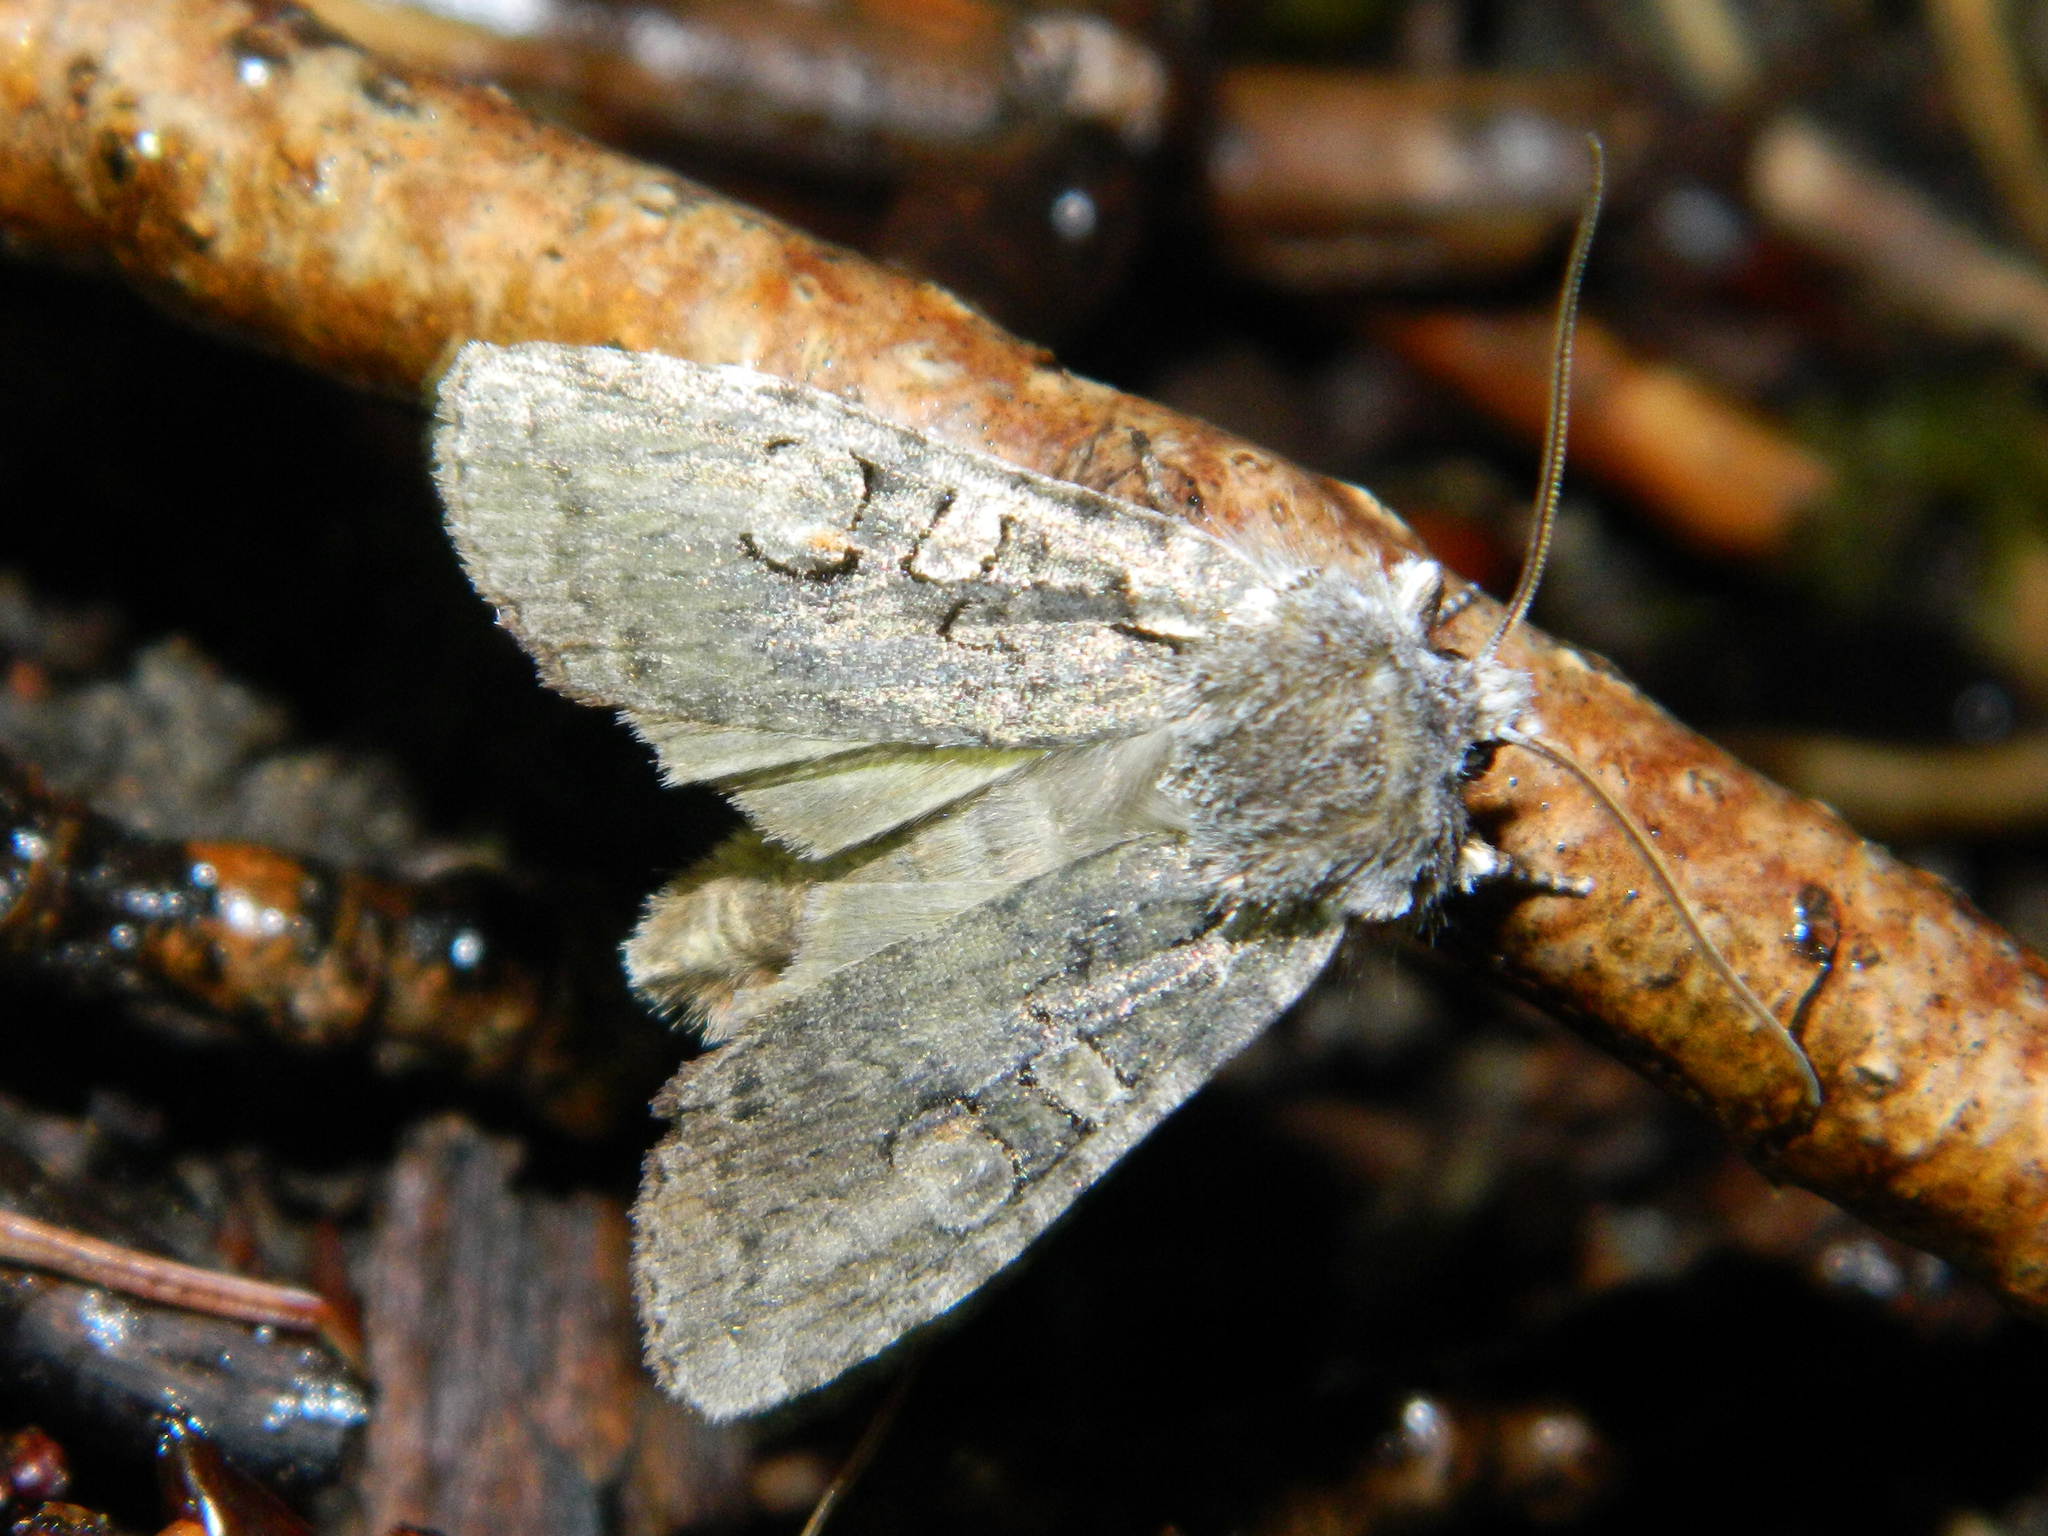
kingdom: Animalia
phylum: Arthropoda
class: Insecta
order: Lepidoptera
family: Noctuidae
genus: Lithophane
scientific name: Lithophane baileyi
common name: Bailey's pinion moth
